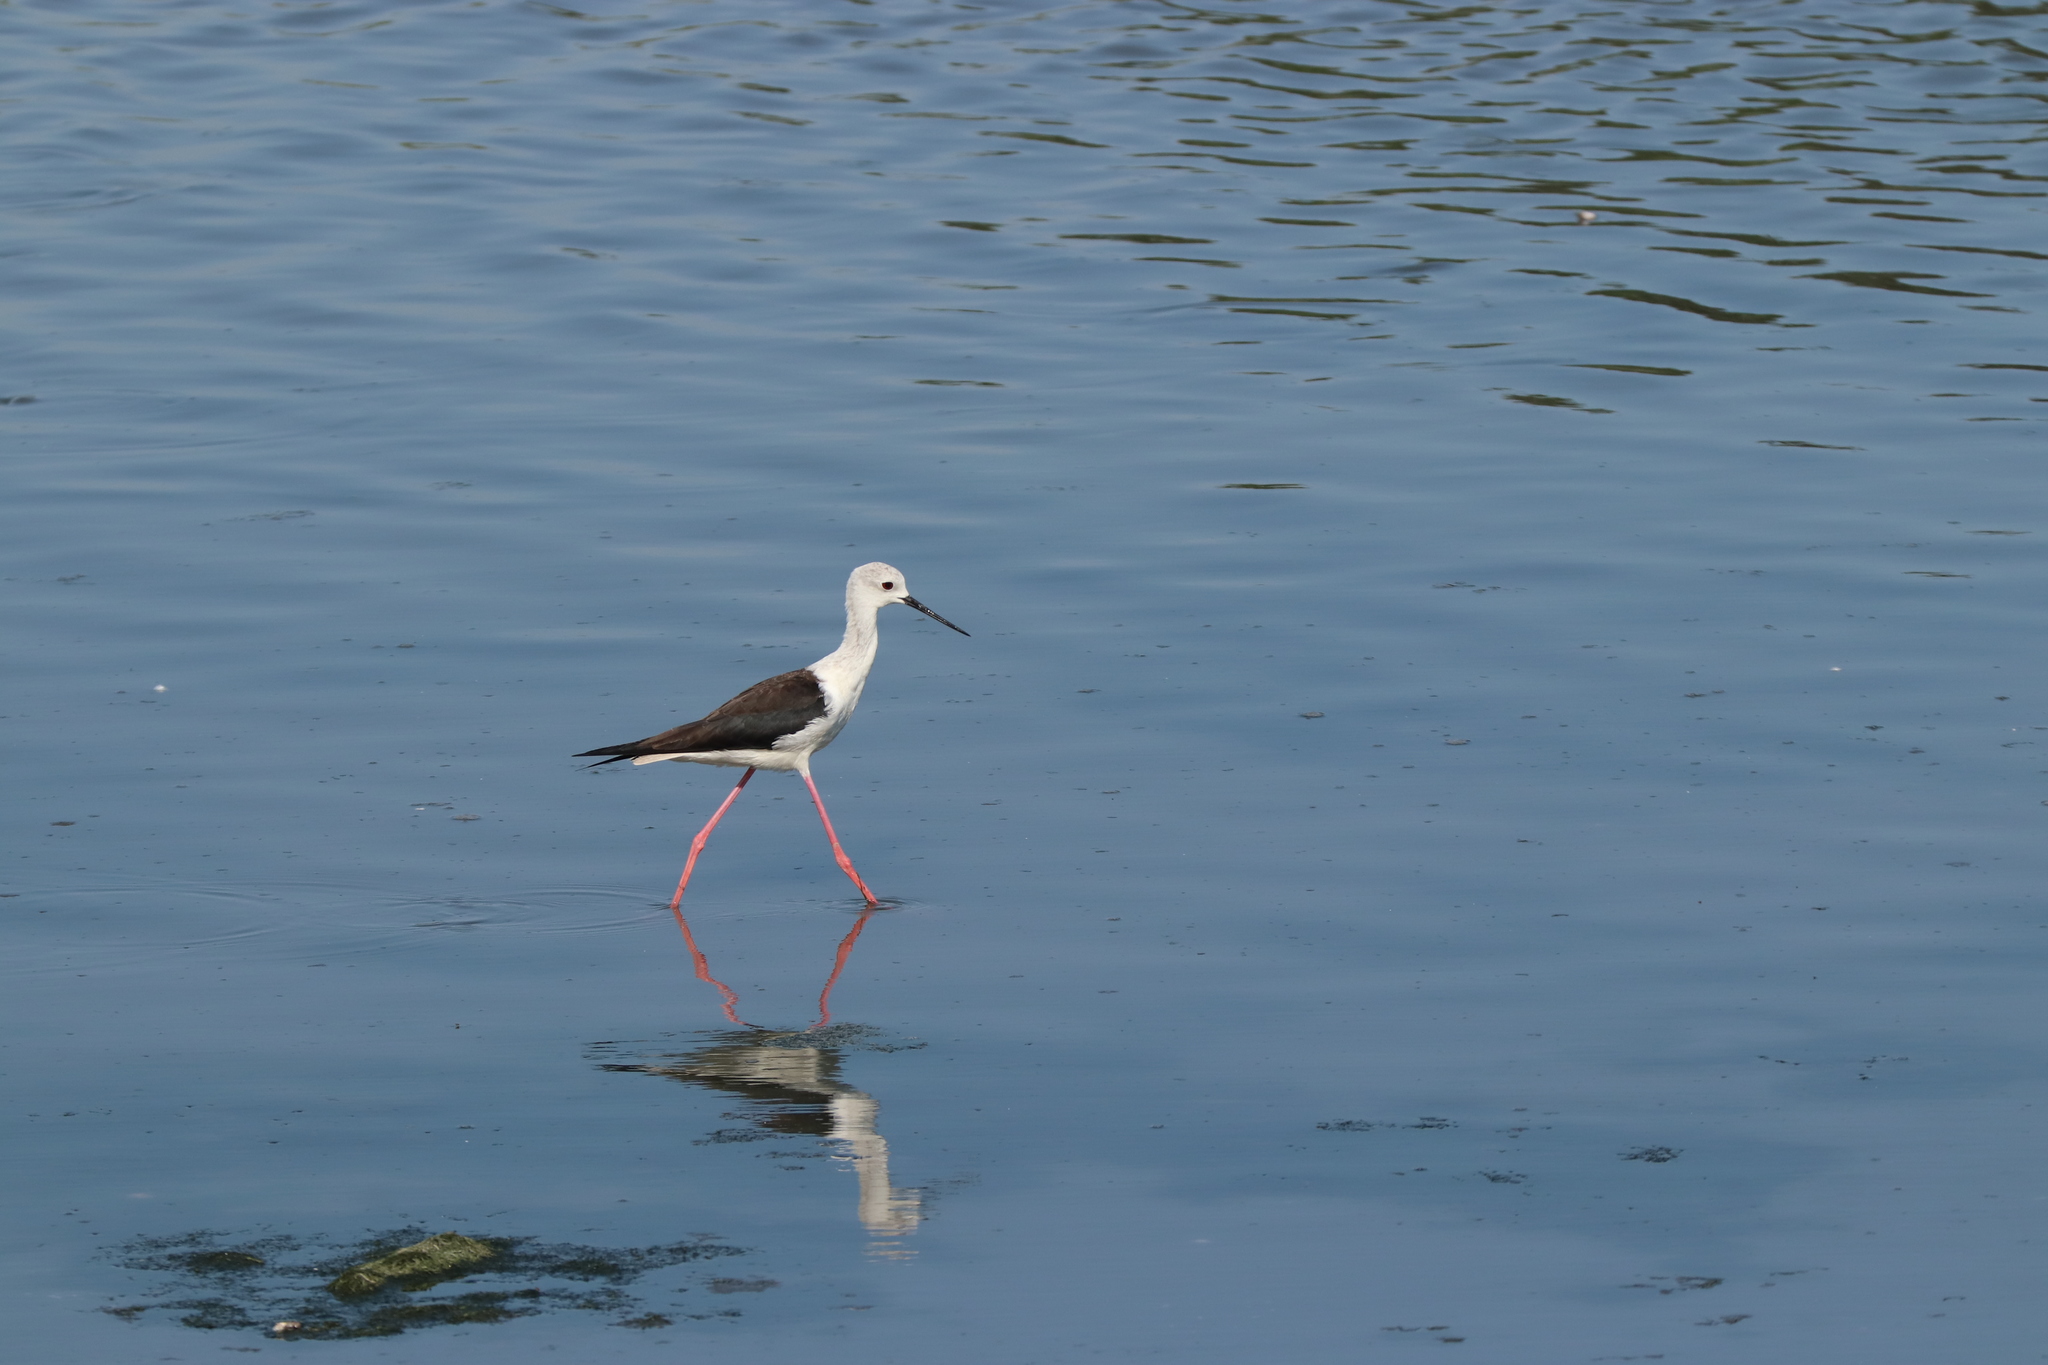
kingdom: Animalia
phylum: Chordata
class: Aves
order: Charadriiformes
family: Recurvirostridae
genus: Himantopus
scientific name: Himantopus himantopus
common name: Black-winged stilt
